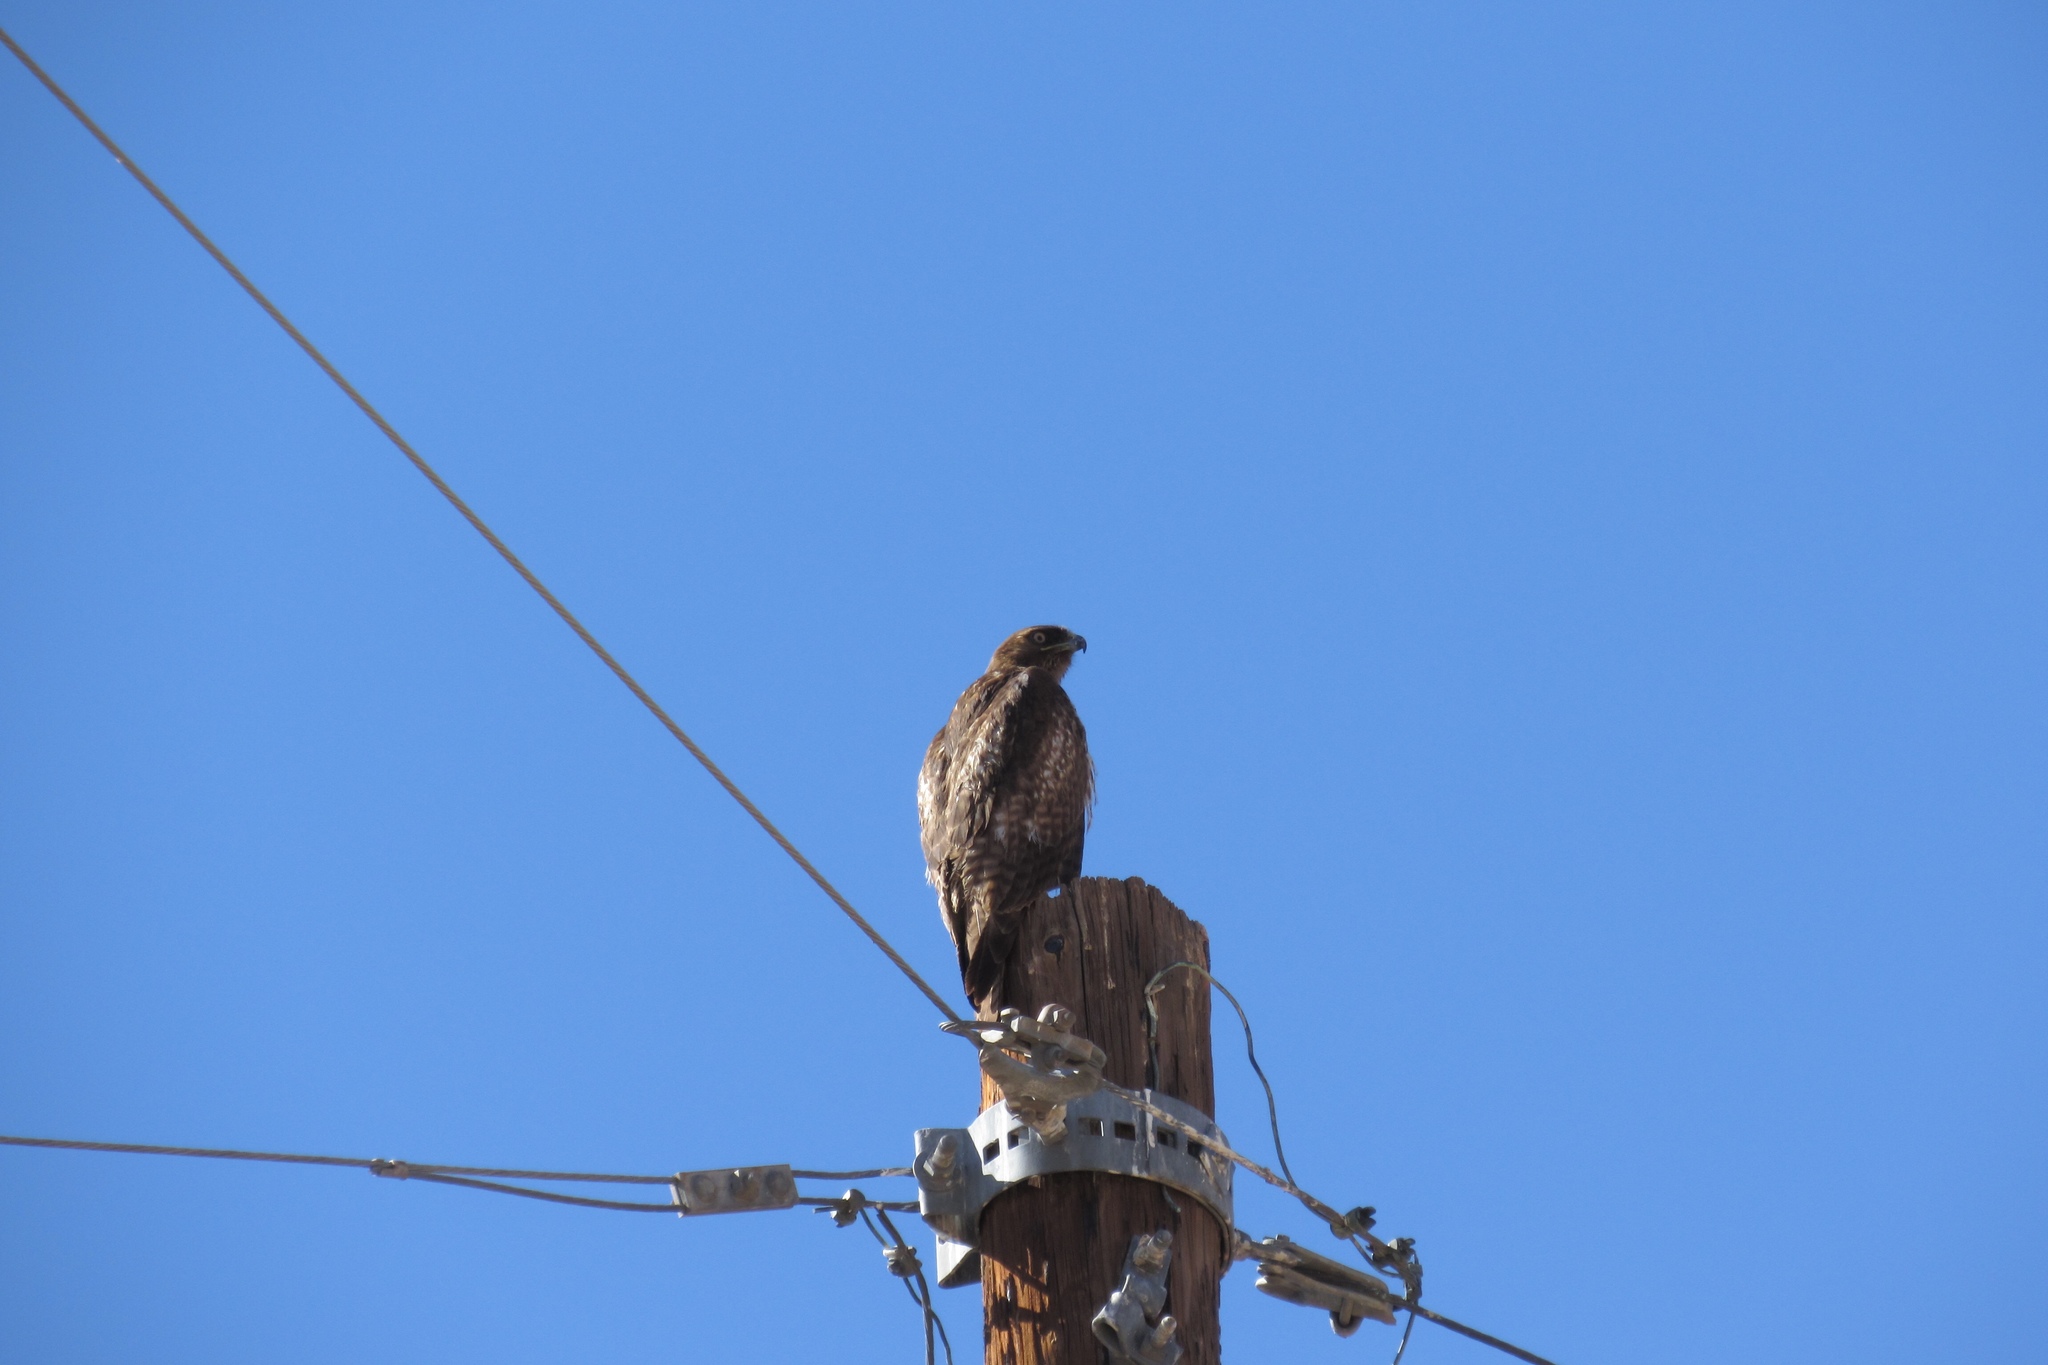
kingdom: Animalia
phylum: Chordata
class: Aves
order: Accipitriformes
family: Accipitridae
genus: Buteo
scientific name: Buteo jamaicensis
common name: Red-tailed hawk
